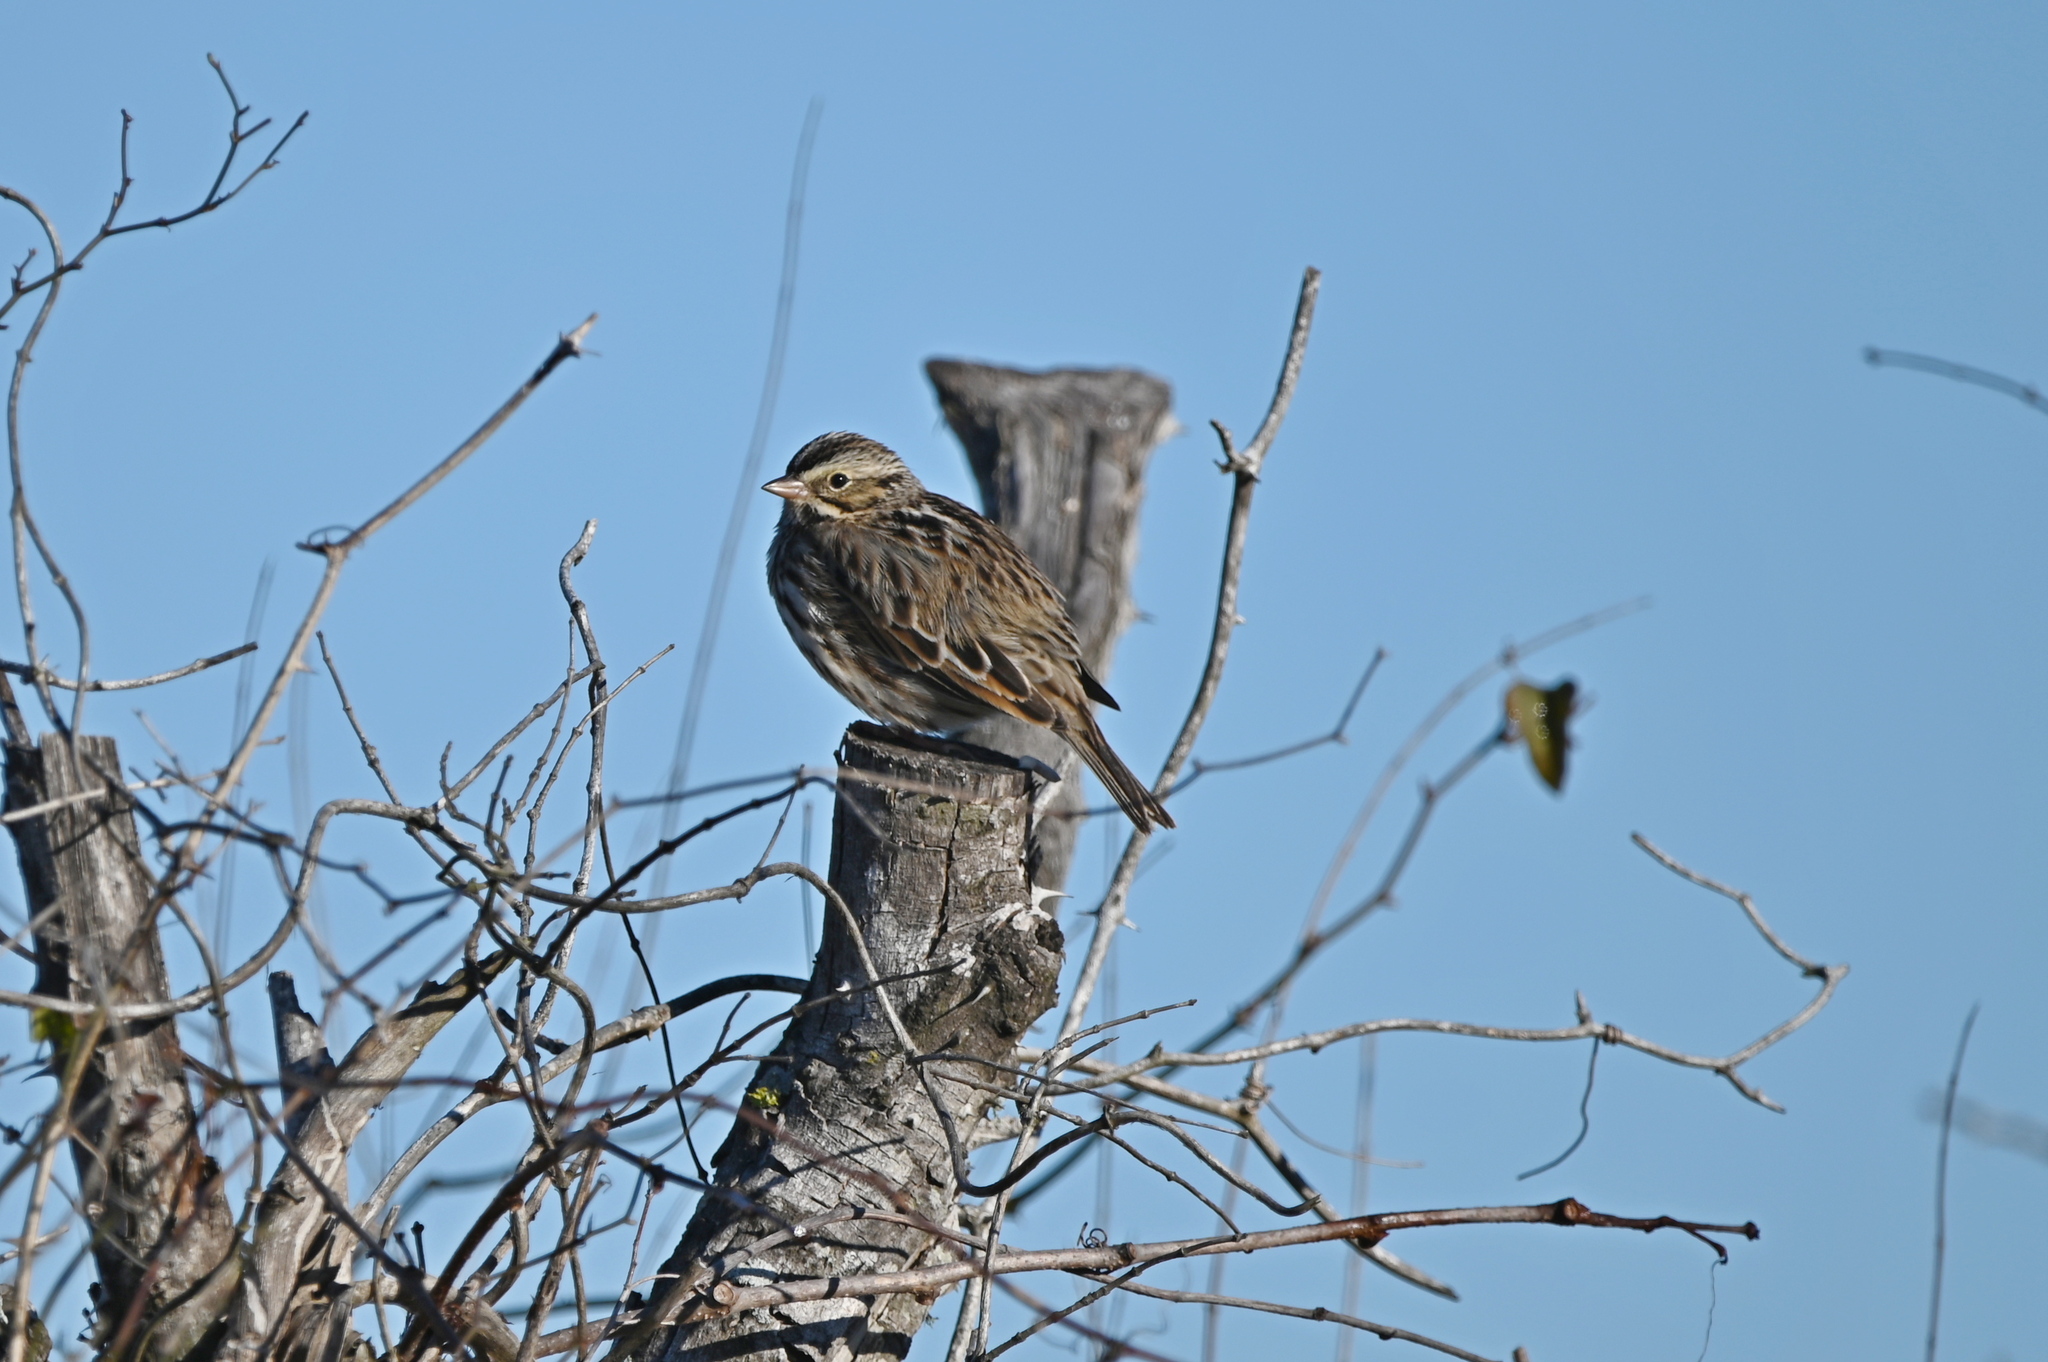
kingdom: Animalia
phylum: Chordata
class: Aves
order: Passeriformes
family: Passerellidae
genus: Passerculus
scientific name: Passerculus sandwichensis
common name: Savannah sparrow
